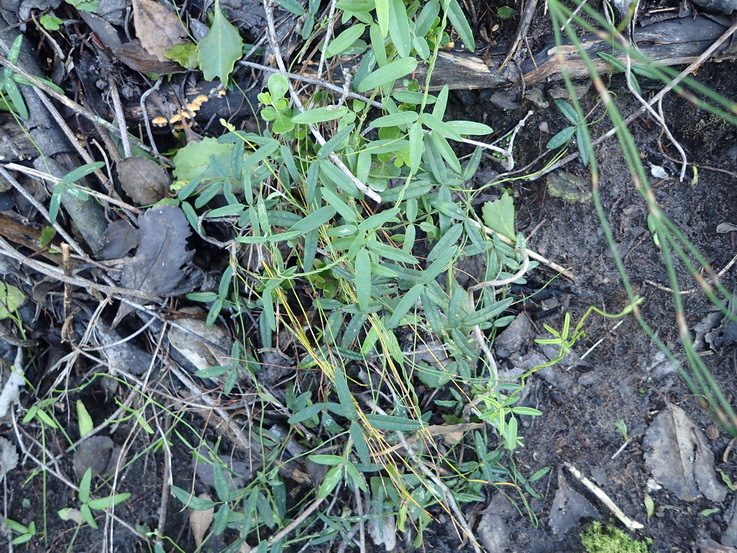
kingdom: Plantae
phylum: Tracheophyta
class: Magnoliopsida
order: Fabales
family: Fabaceae
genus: Rhynchosia
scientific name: Rhynchosia leucoscias
